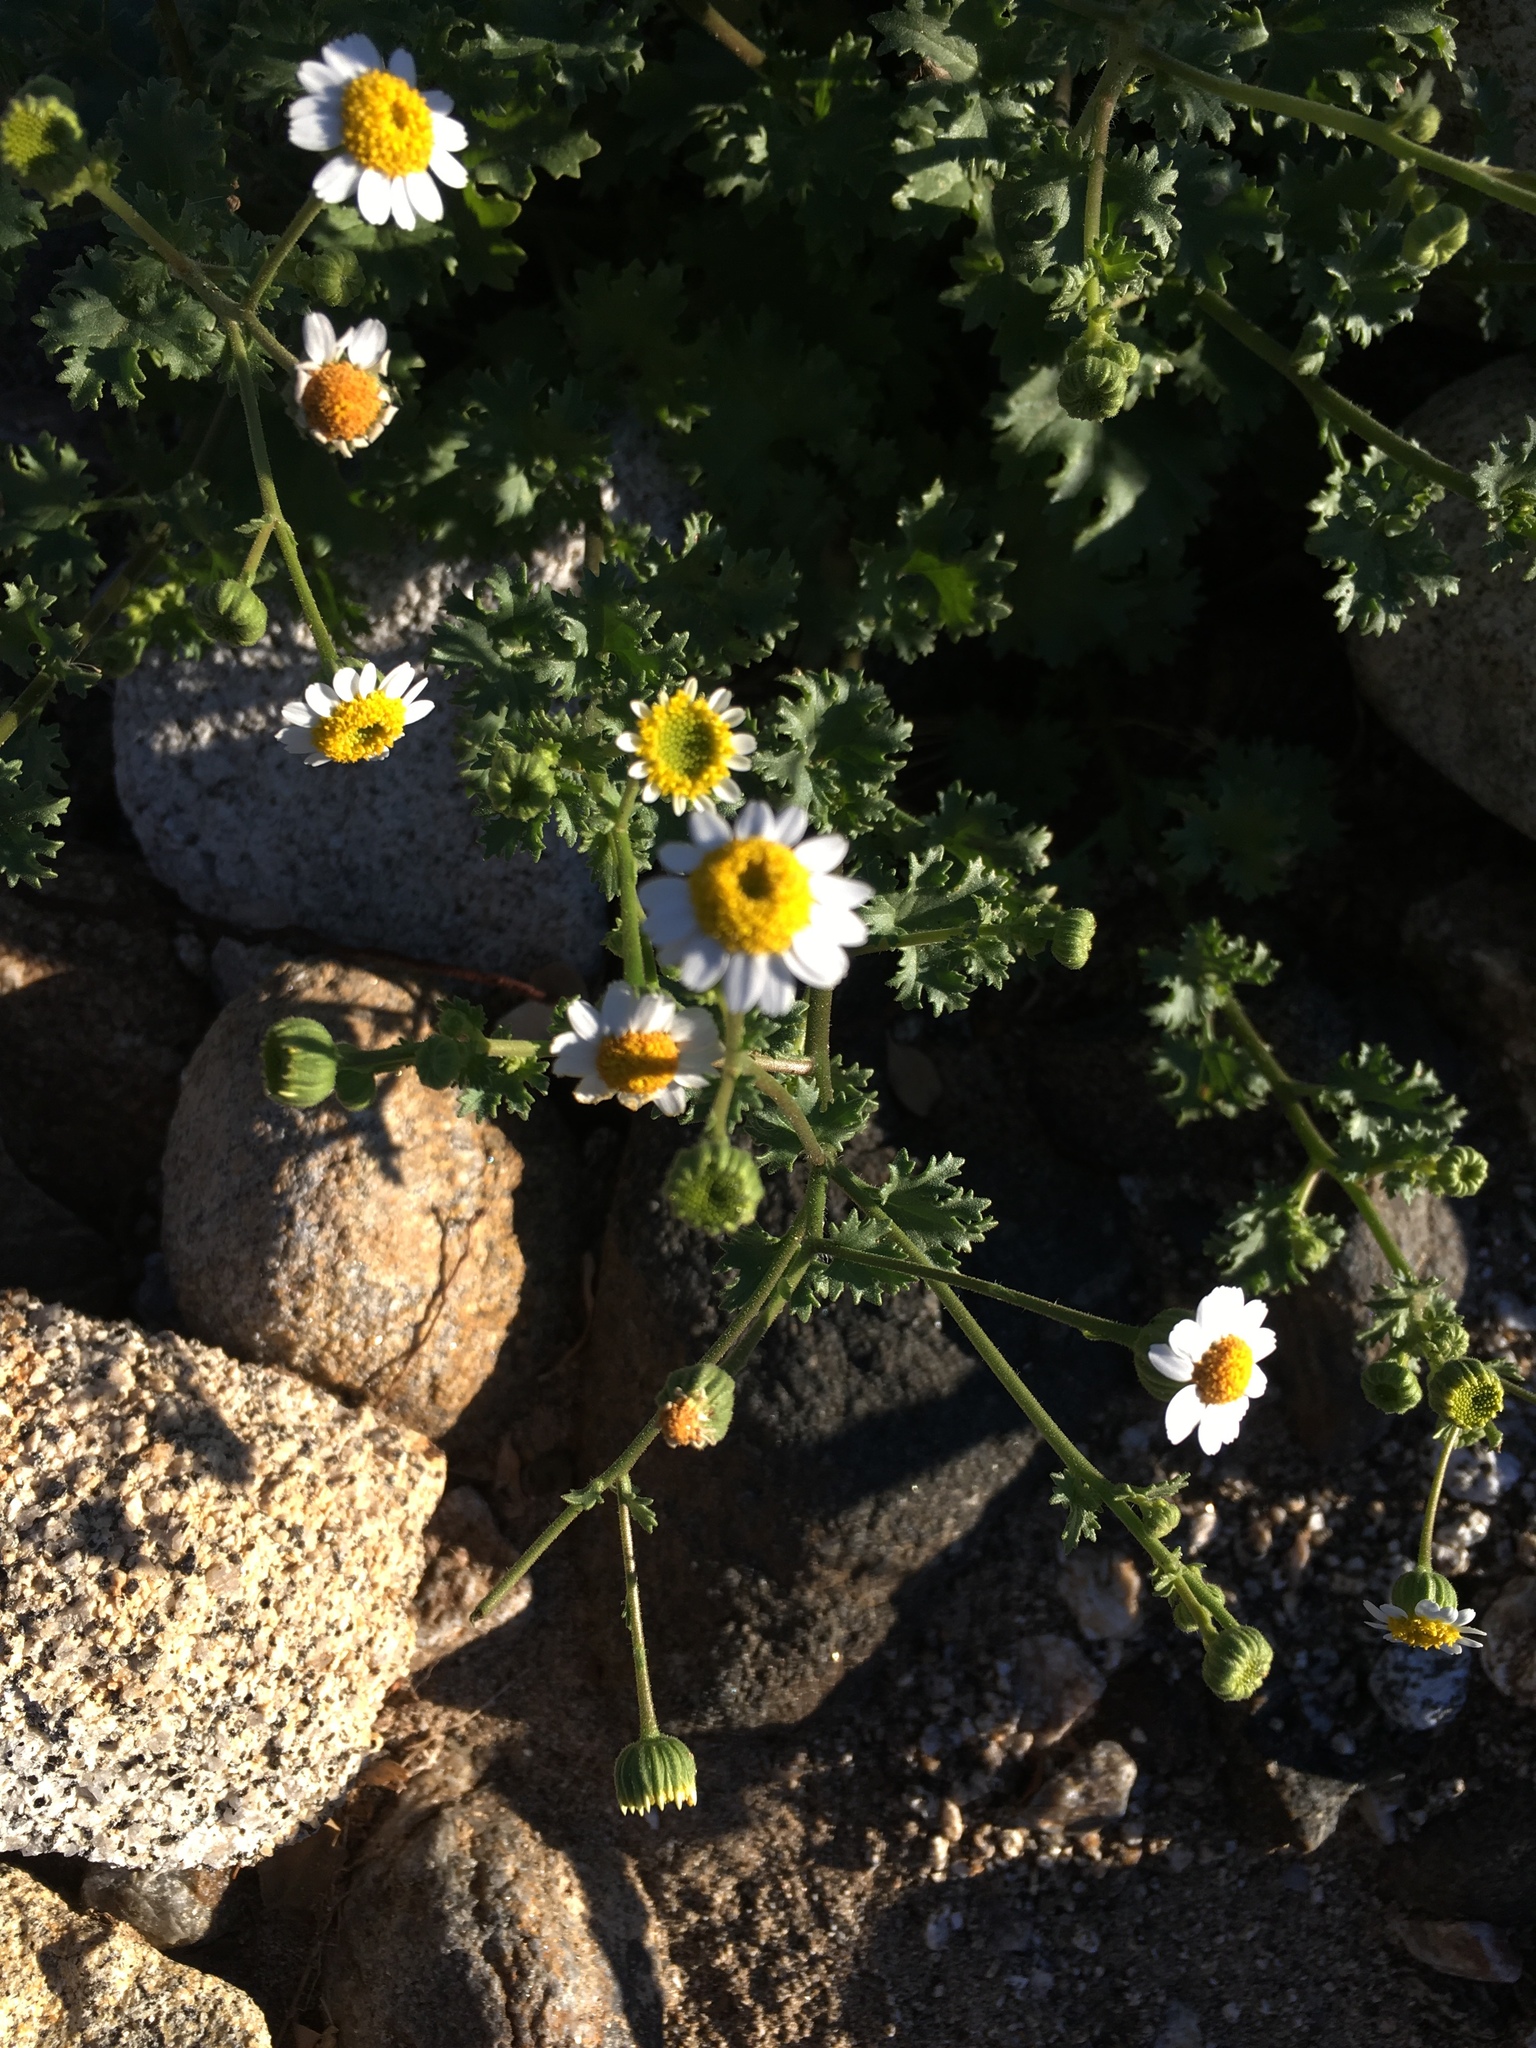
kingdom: Plantae
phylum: Tracheophyta
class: Magnoliopsida
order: Asterales
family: Asteraceae
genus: Laphamia
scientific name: Laphamia emoryi
